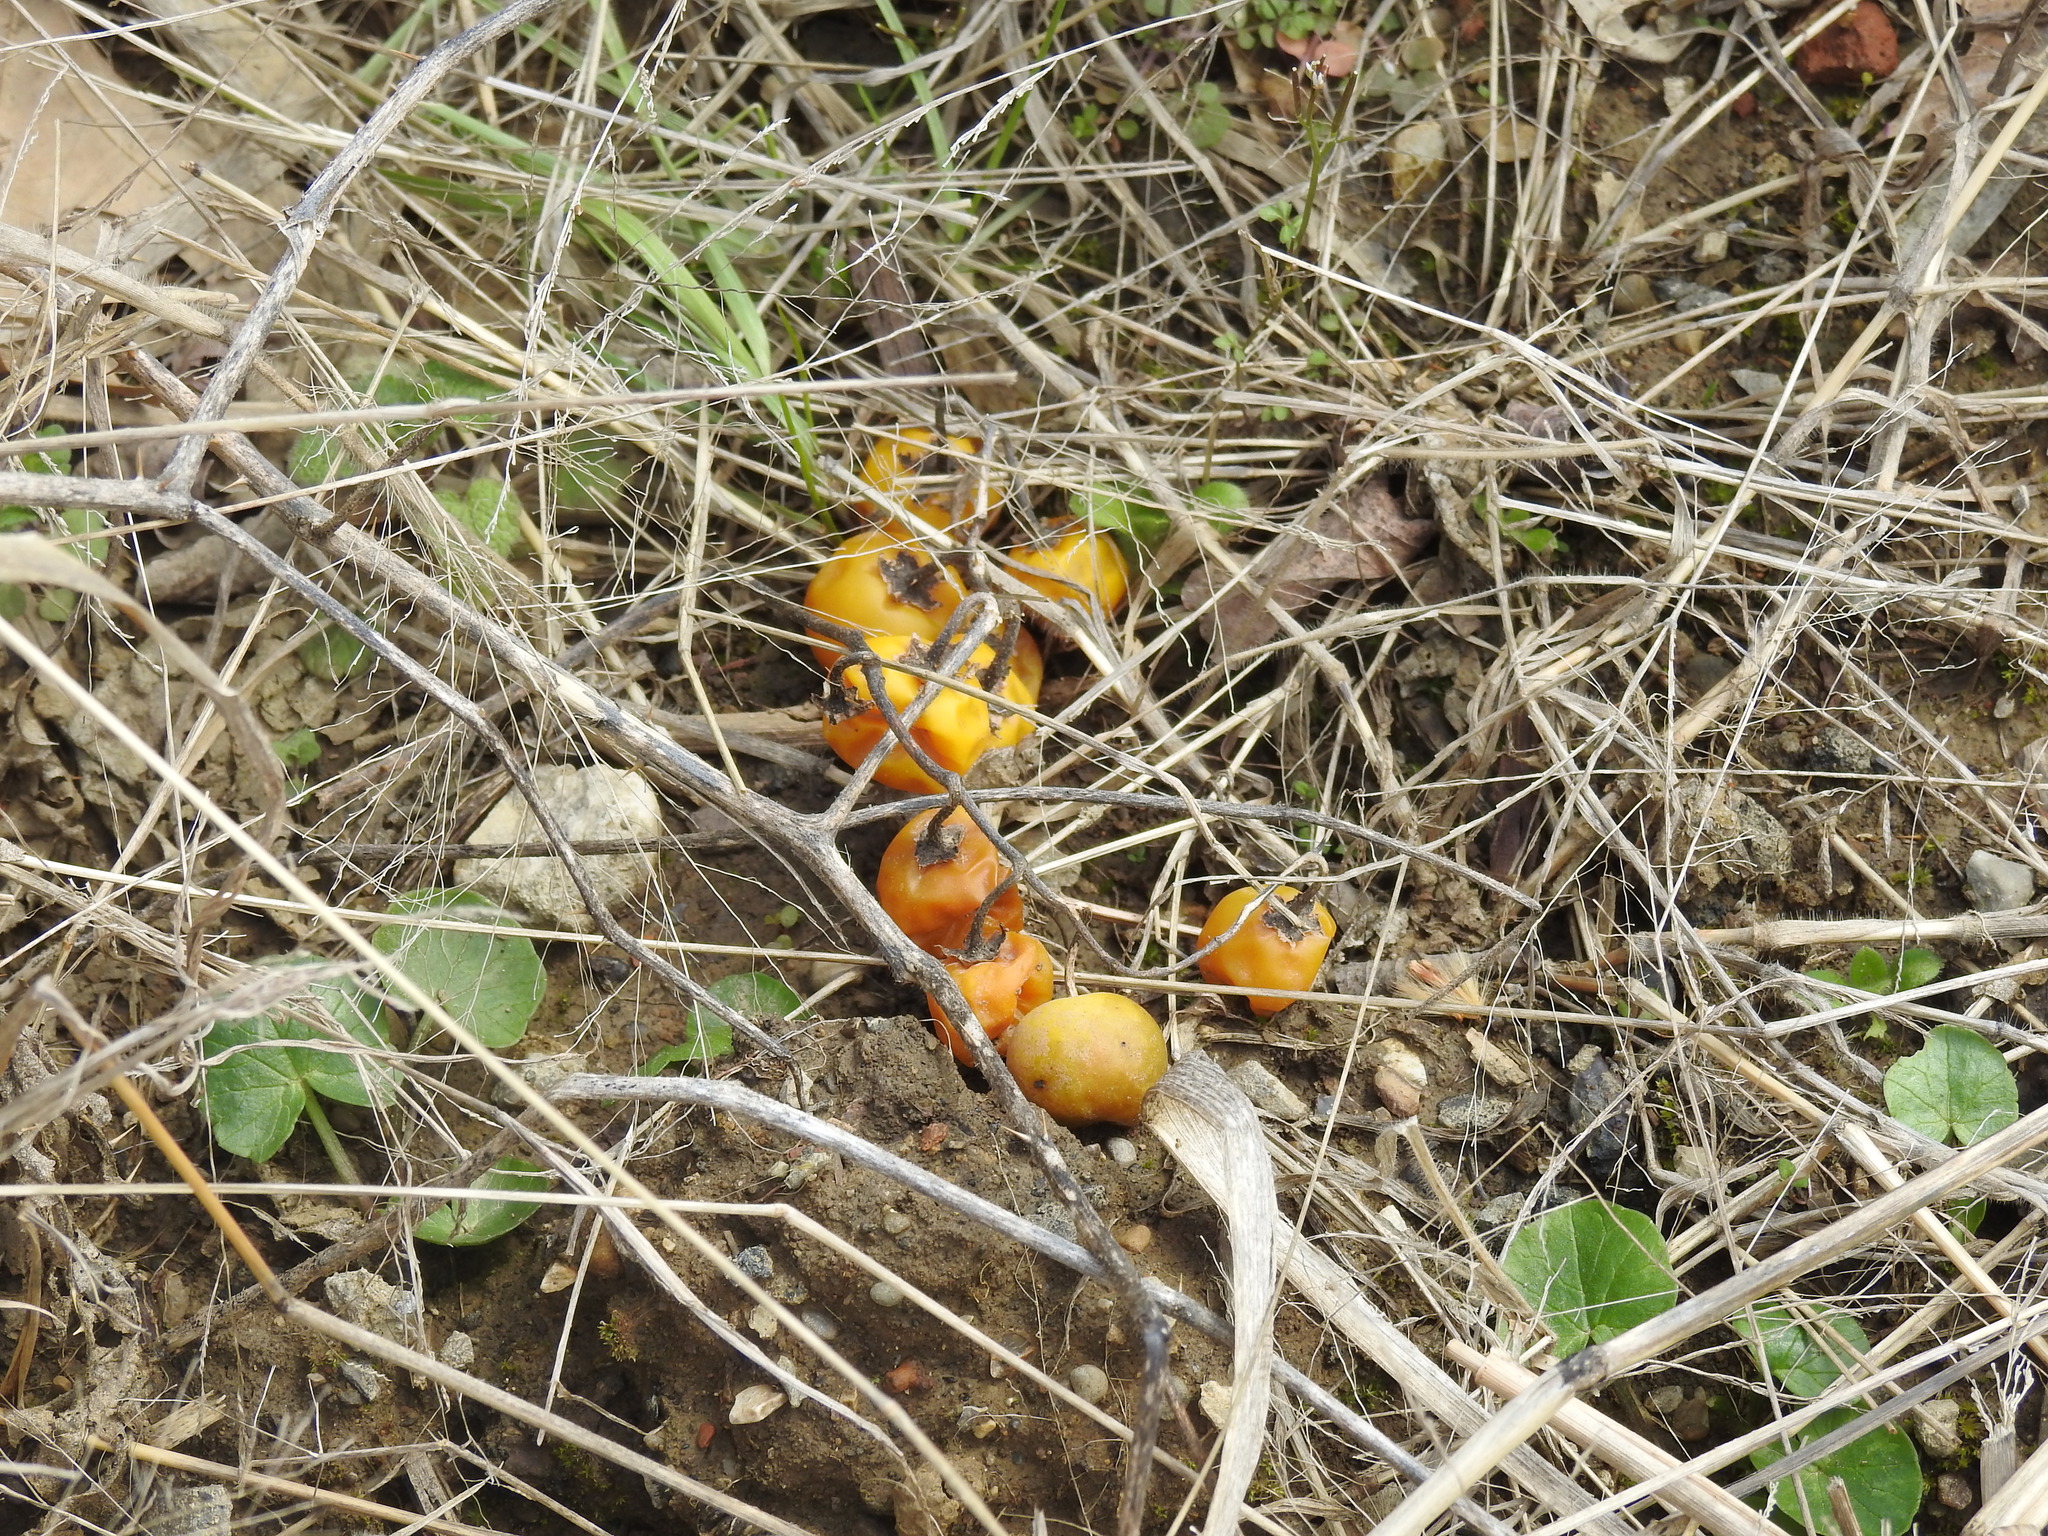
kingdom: Plantae
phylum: Tracheophyta
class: Magnoliopsida
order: Solanales
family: Solanaceae
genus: Solanum
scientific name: Solanum carolinense
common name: Horse-nettle
